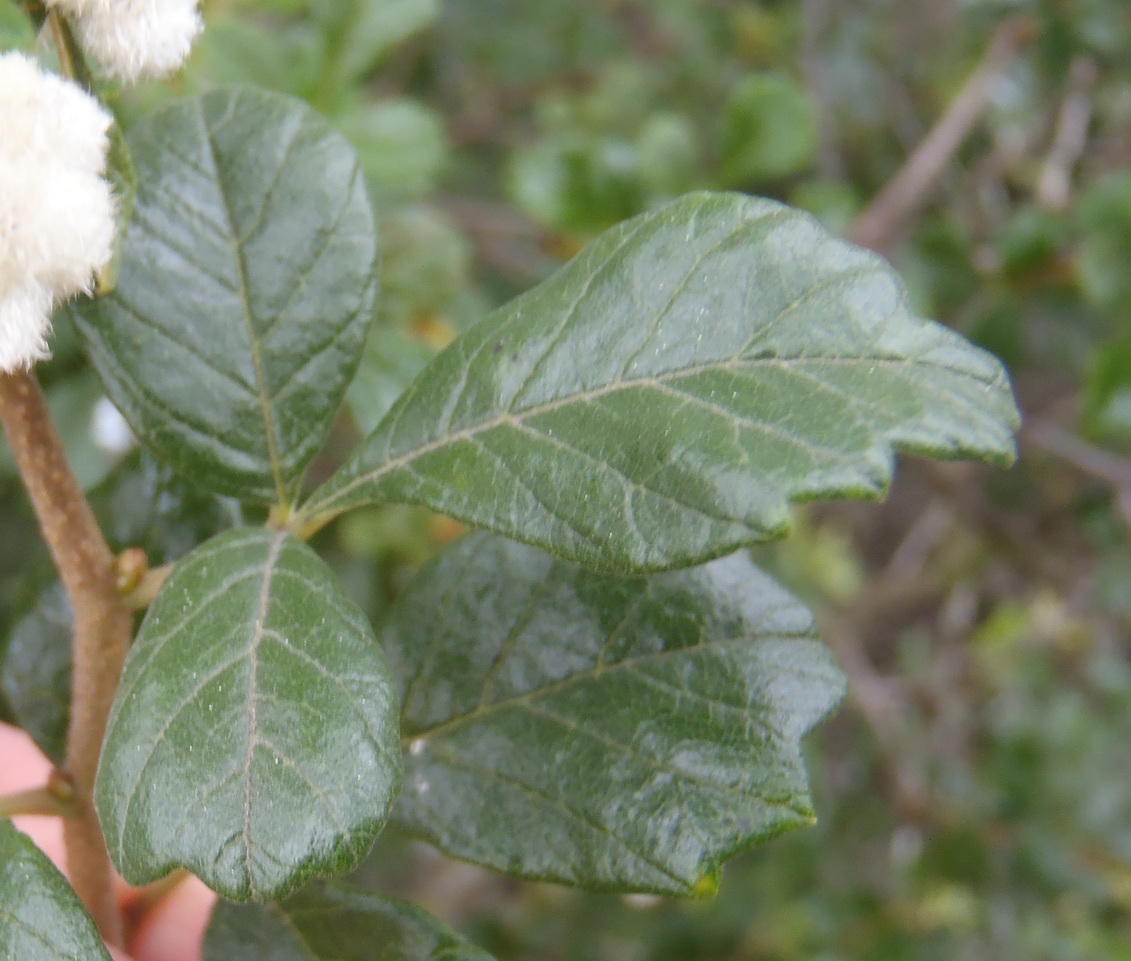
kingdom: Plantae
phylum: Tracheophyta
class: Magnoliopsida
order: Sapindales
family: Anacardiaceae
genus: Searsia
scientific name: Searsia incisa
